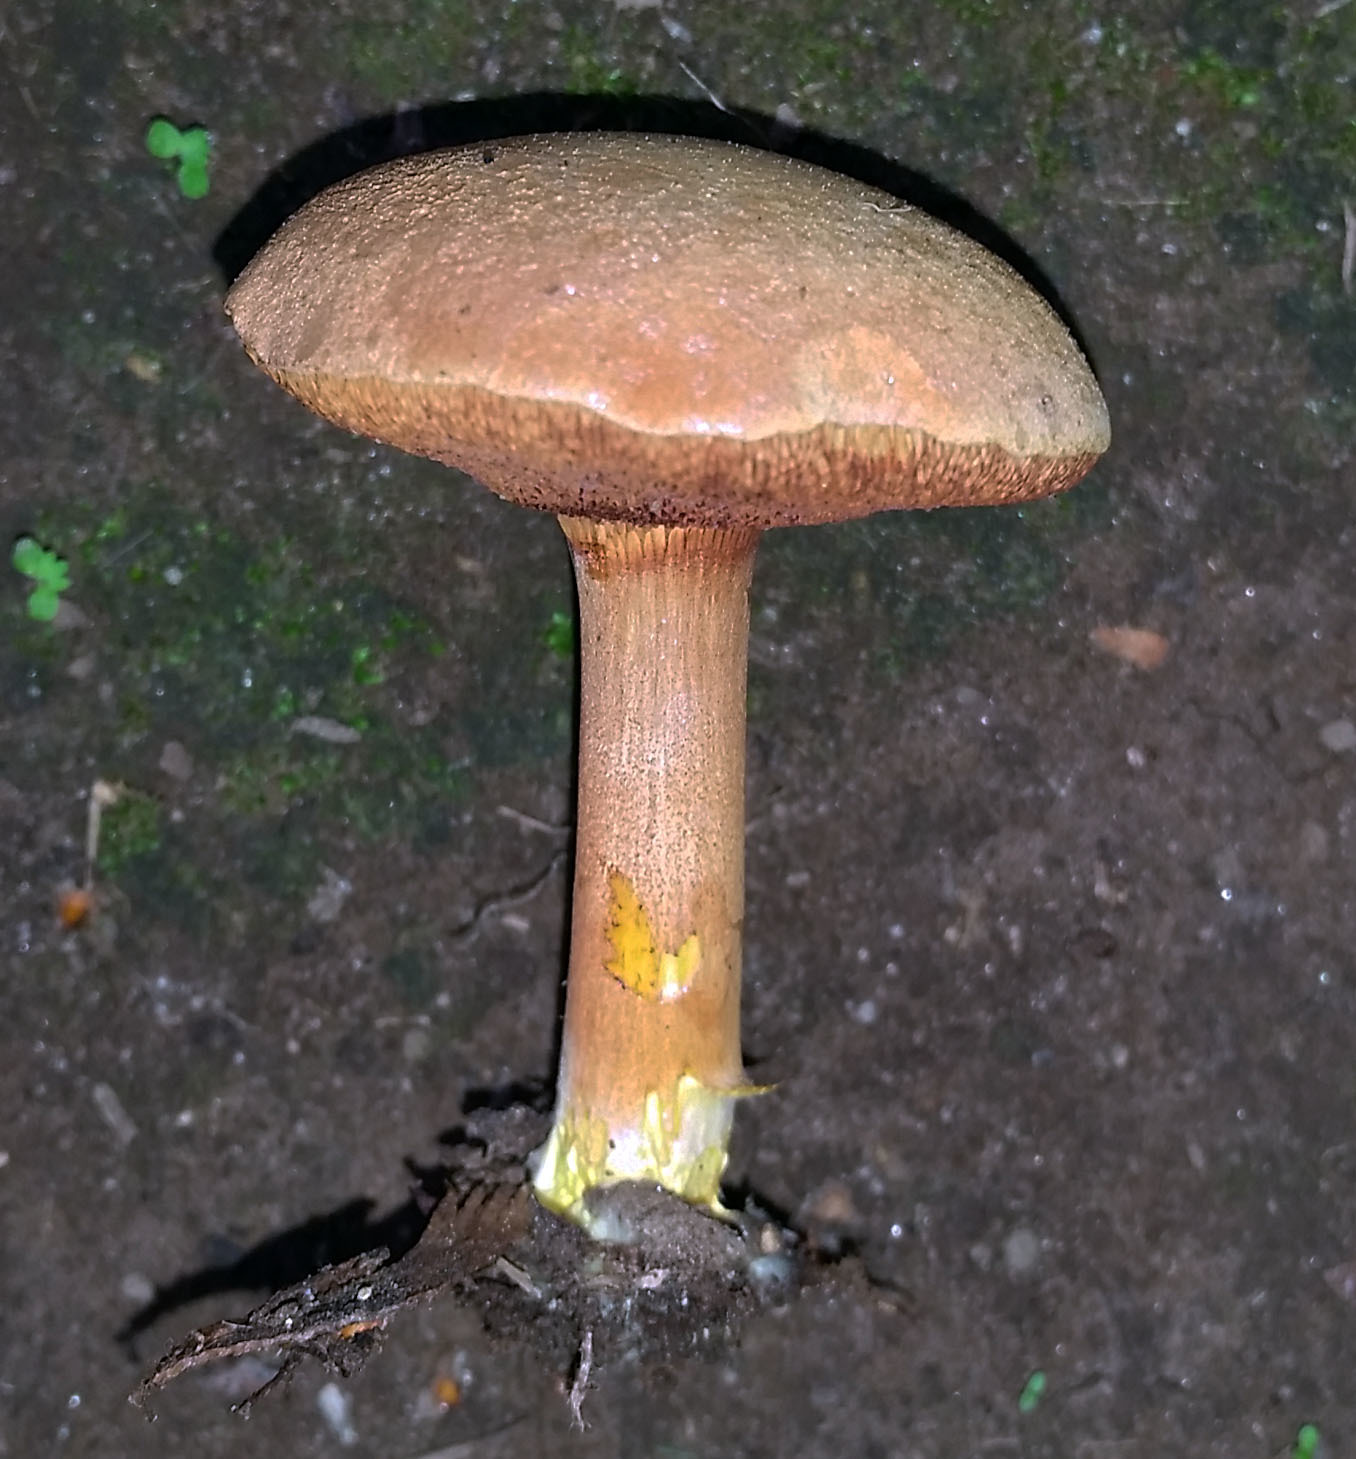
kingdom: Fungi
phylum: Basidiomycota
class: Agaricomycetes
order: Boletales
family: Boletaceae
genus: Chalciporus
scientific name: Chalciporus piperatus
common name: Peppery bolete
